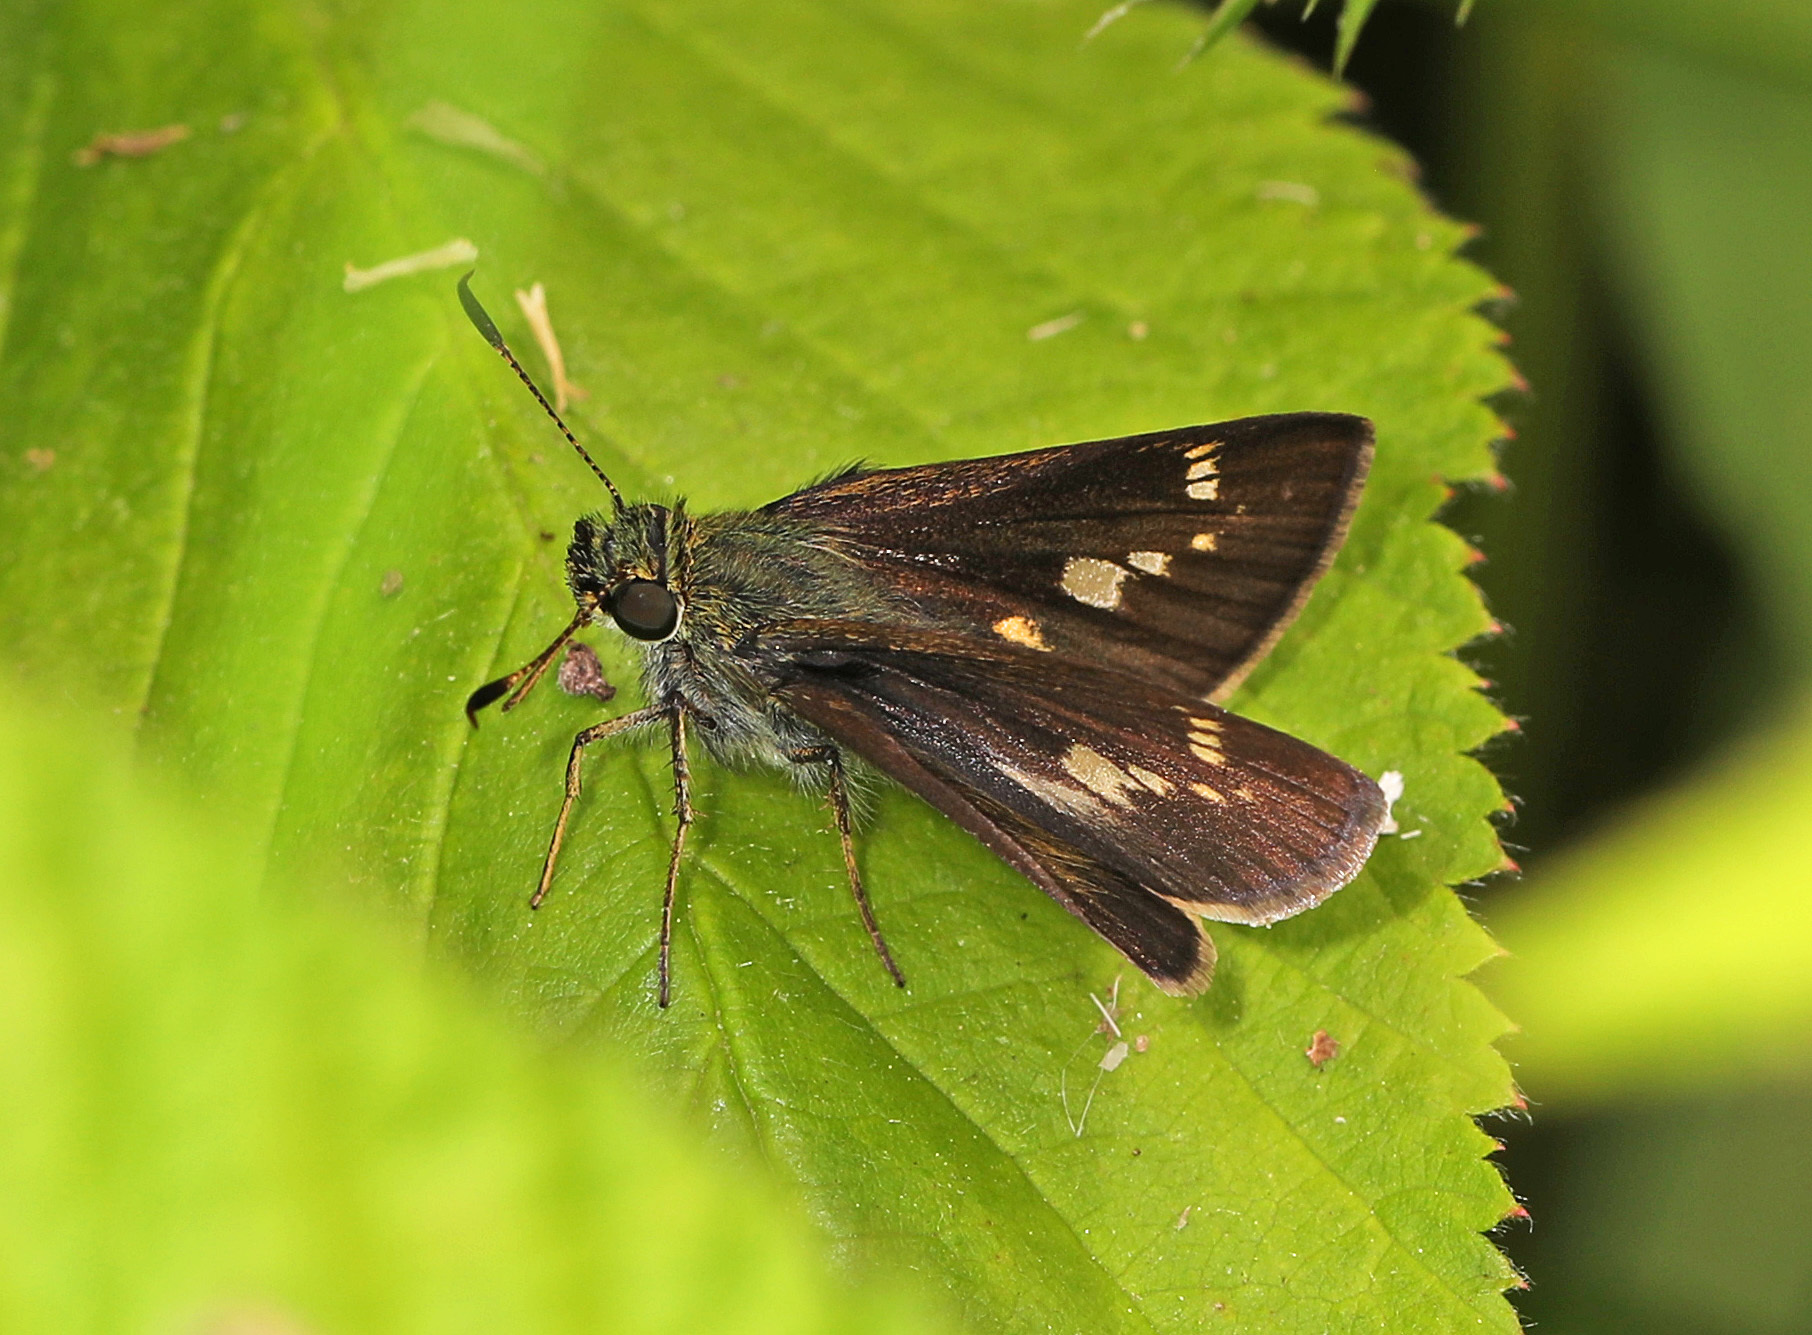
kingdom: Animalia
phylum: Arthropoda
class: Insecta
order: Lepidoptera
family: Hesperiidae
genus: Vernia
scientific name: Vernia verna
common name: Little glassywing
